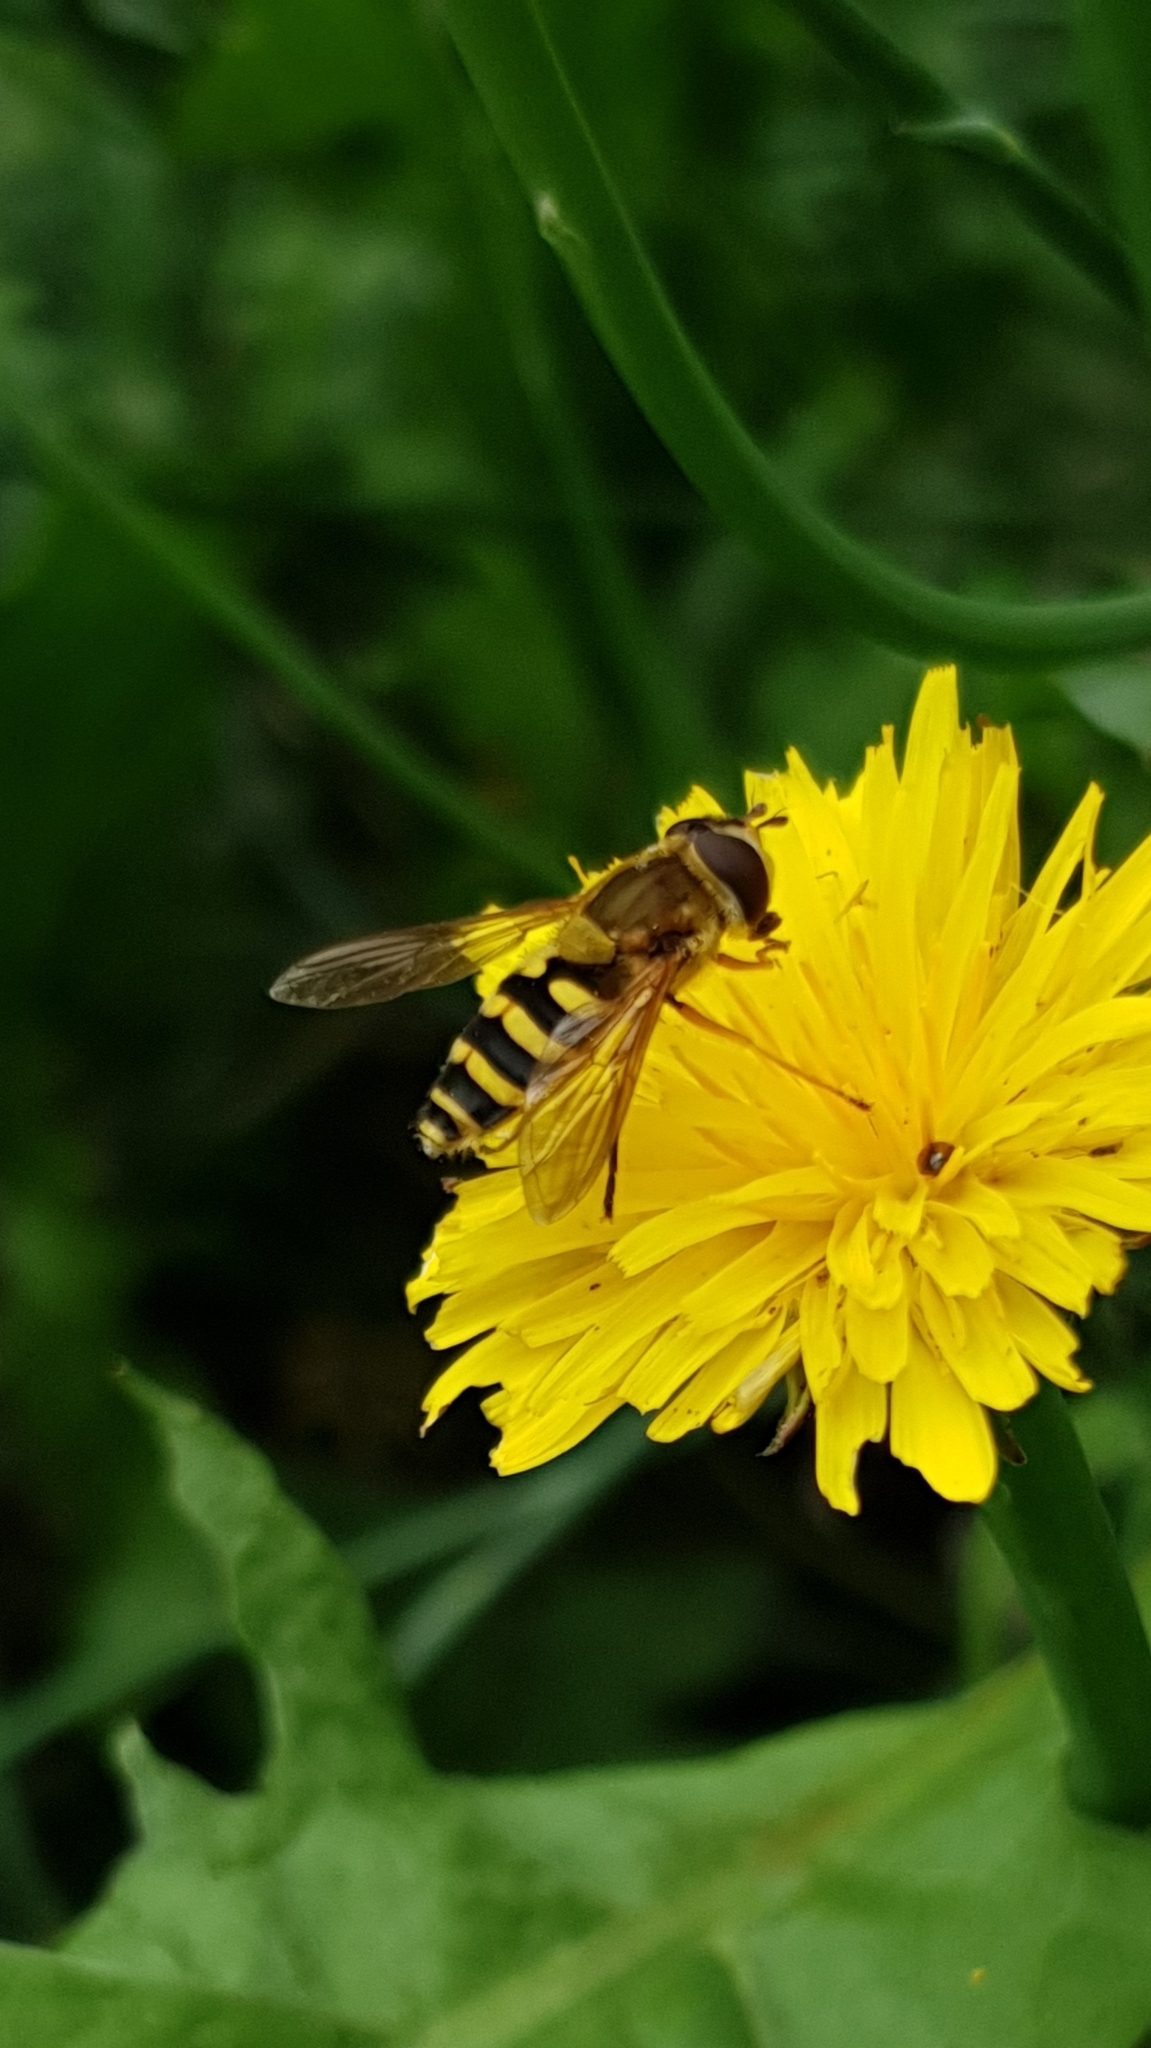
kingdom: Animalia
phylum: Arthropoda
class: Insecta
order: Diptera
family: Syrphidae
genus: Syrphus
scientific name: Syrphus
